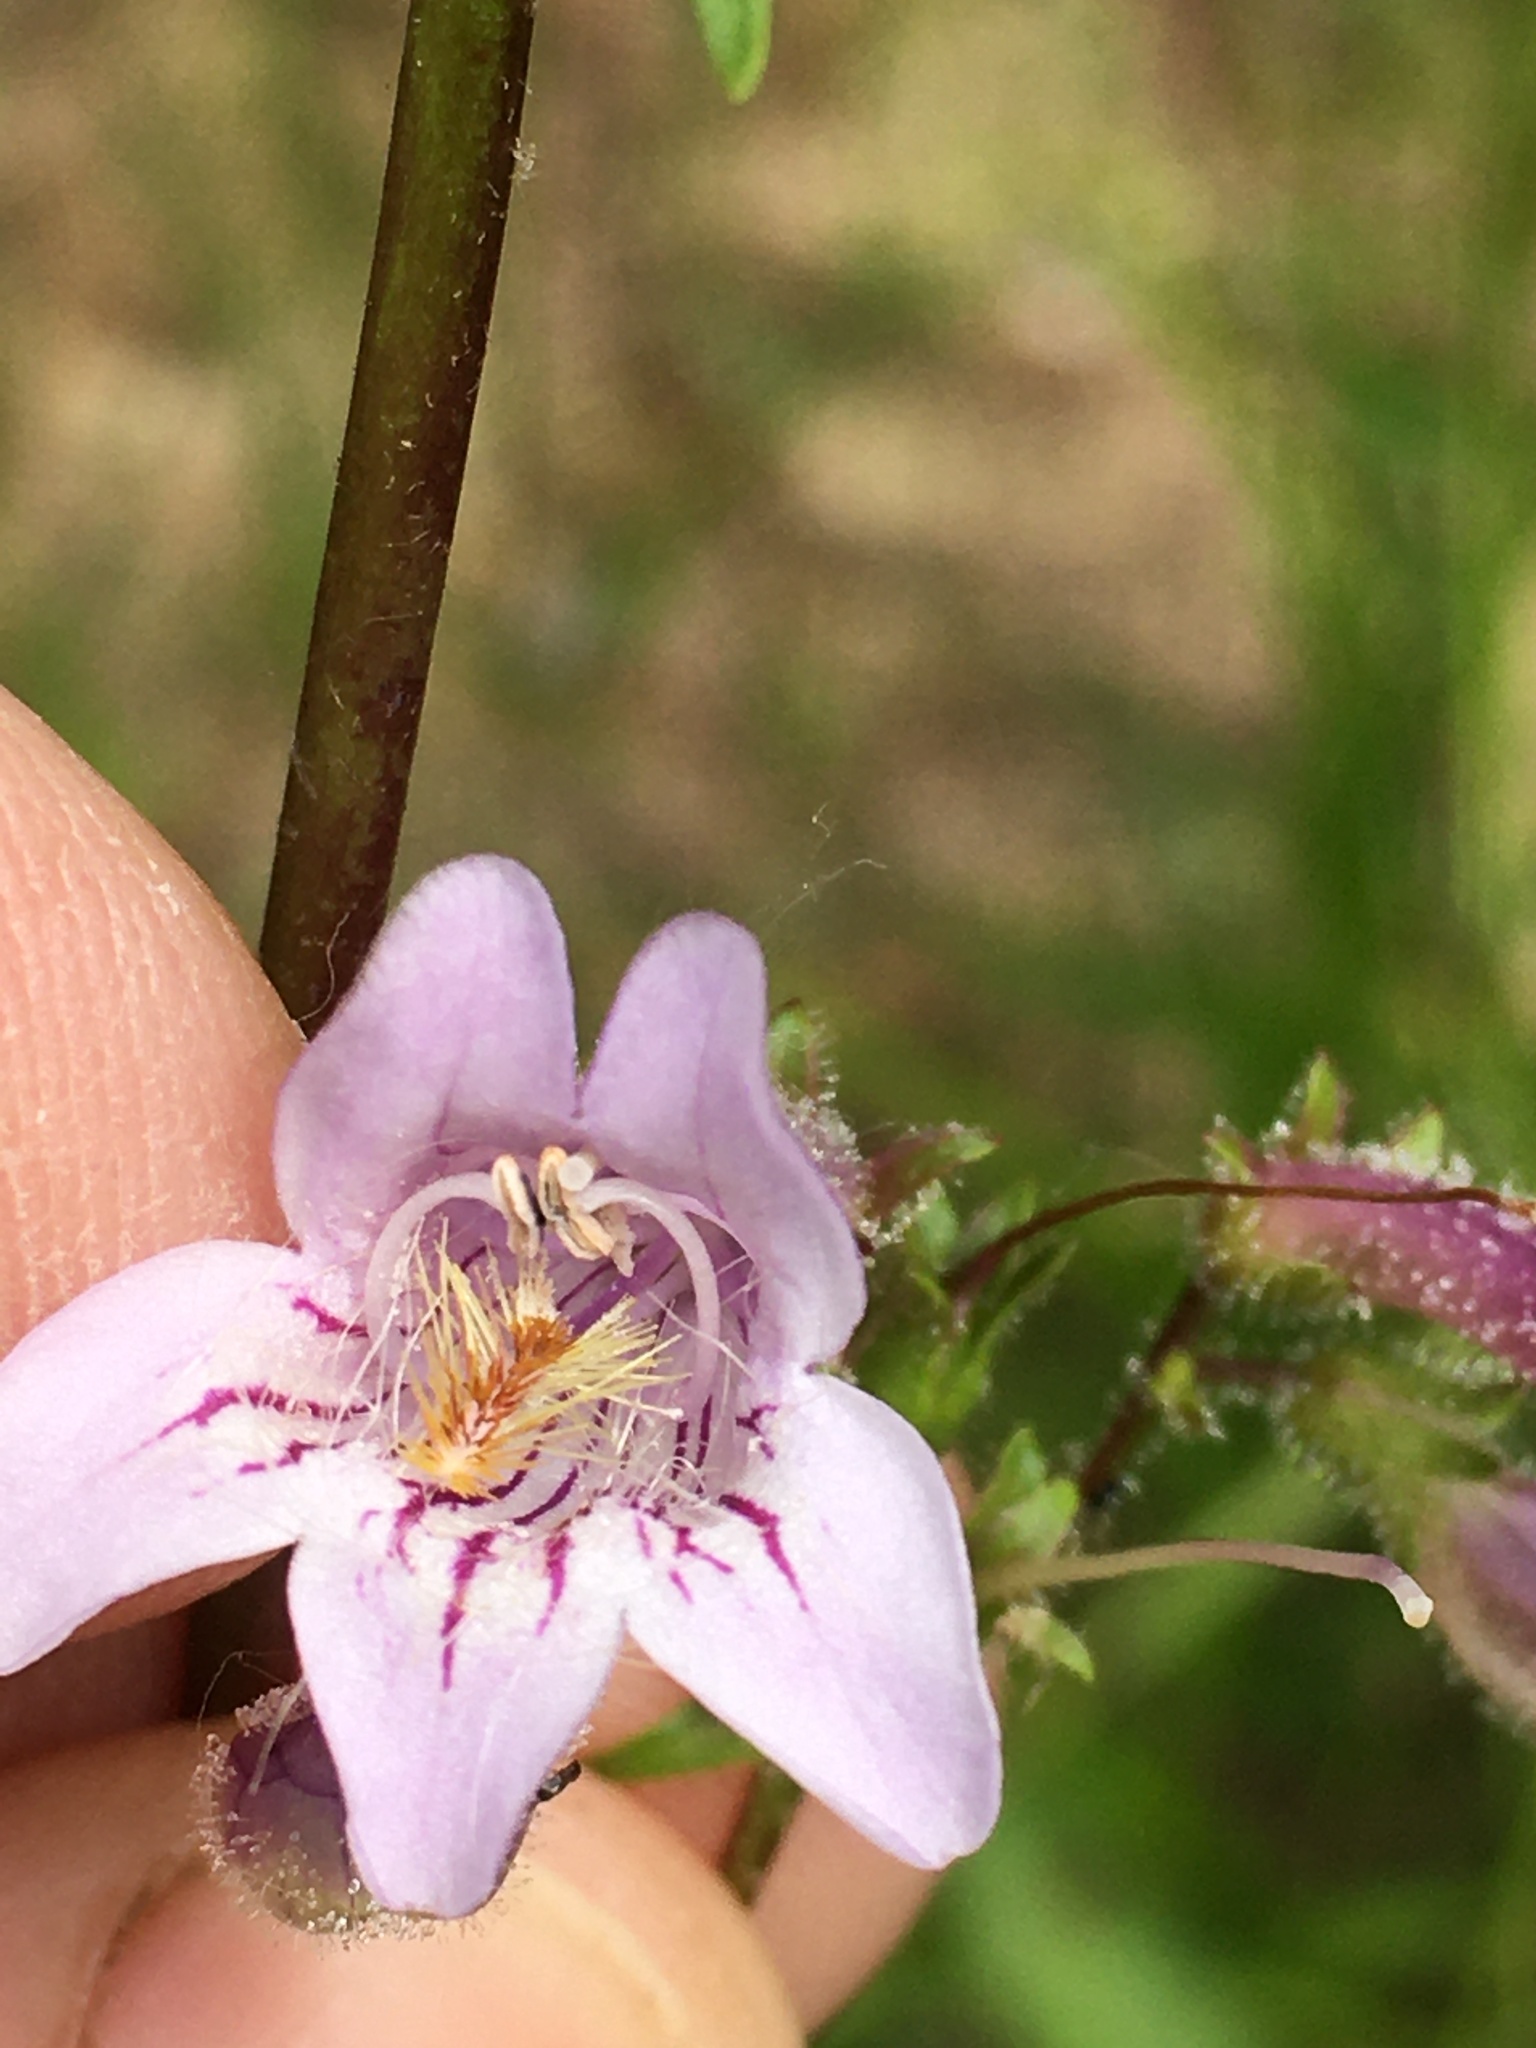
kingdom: Plantae
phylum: Tracheophyta
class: Magnoliopsida
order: Lamiales
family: Plantaginaceae
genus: Penstemon
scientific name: Penstemon laevigatus
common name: Eastern beardtongue
